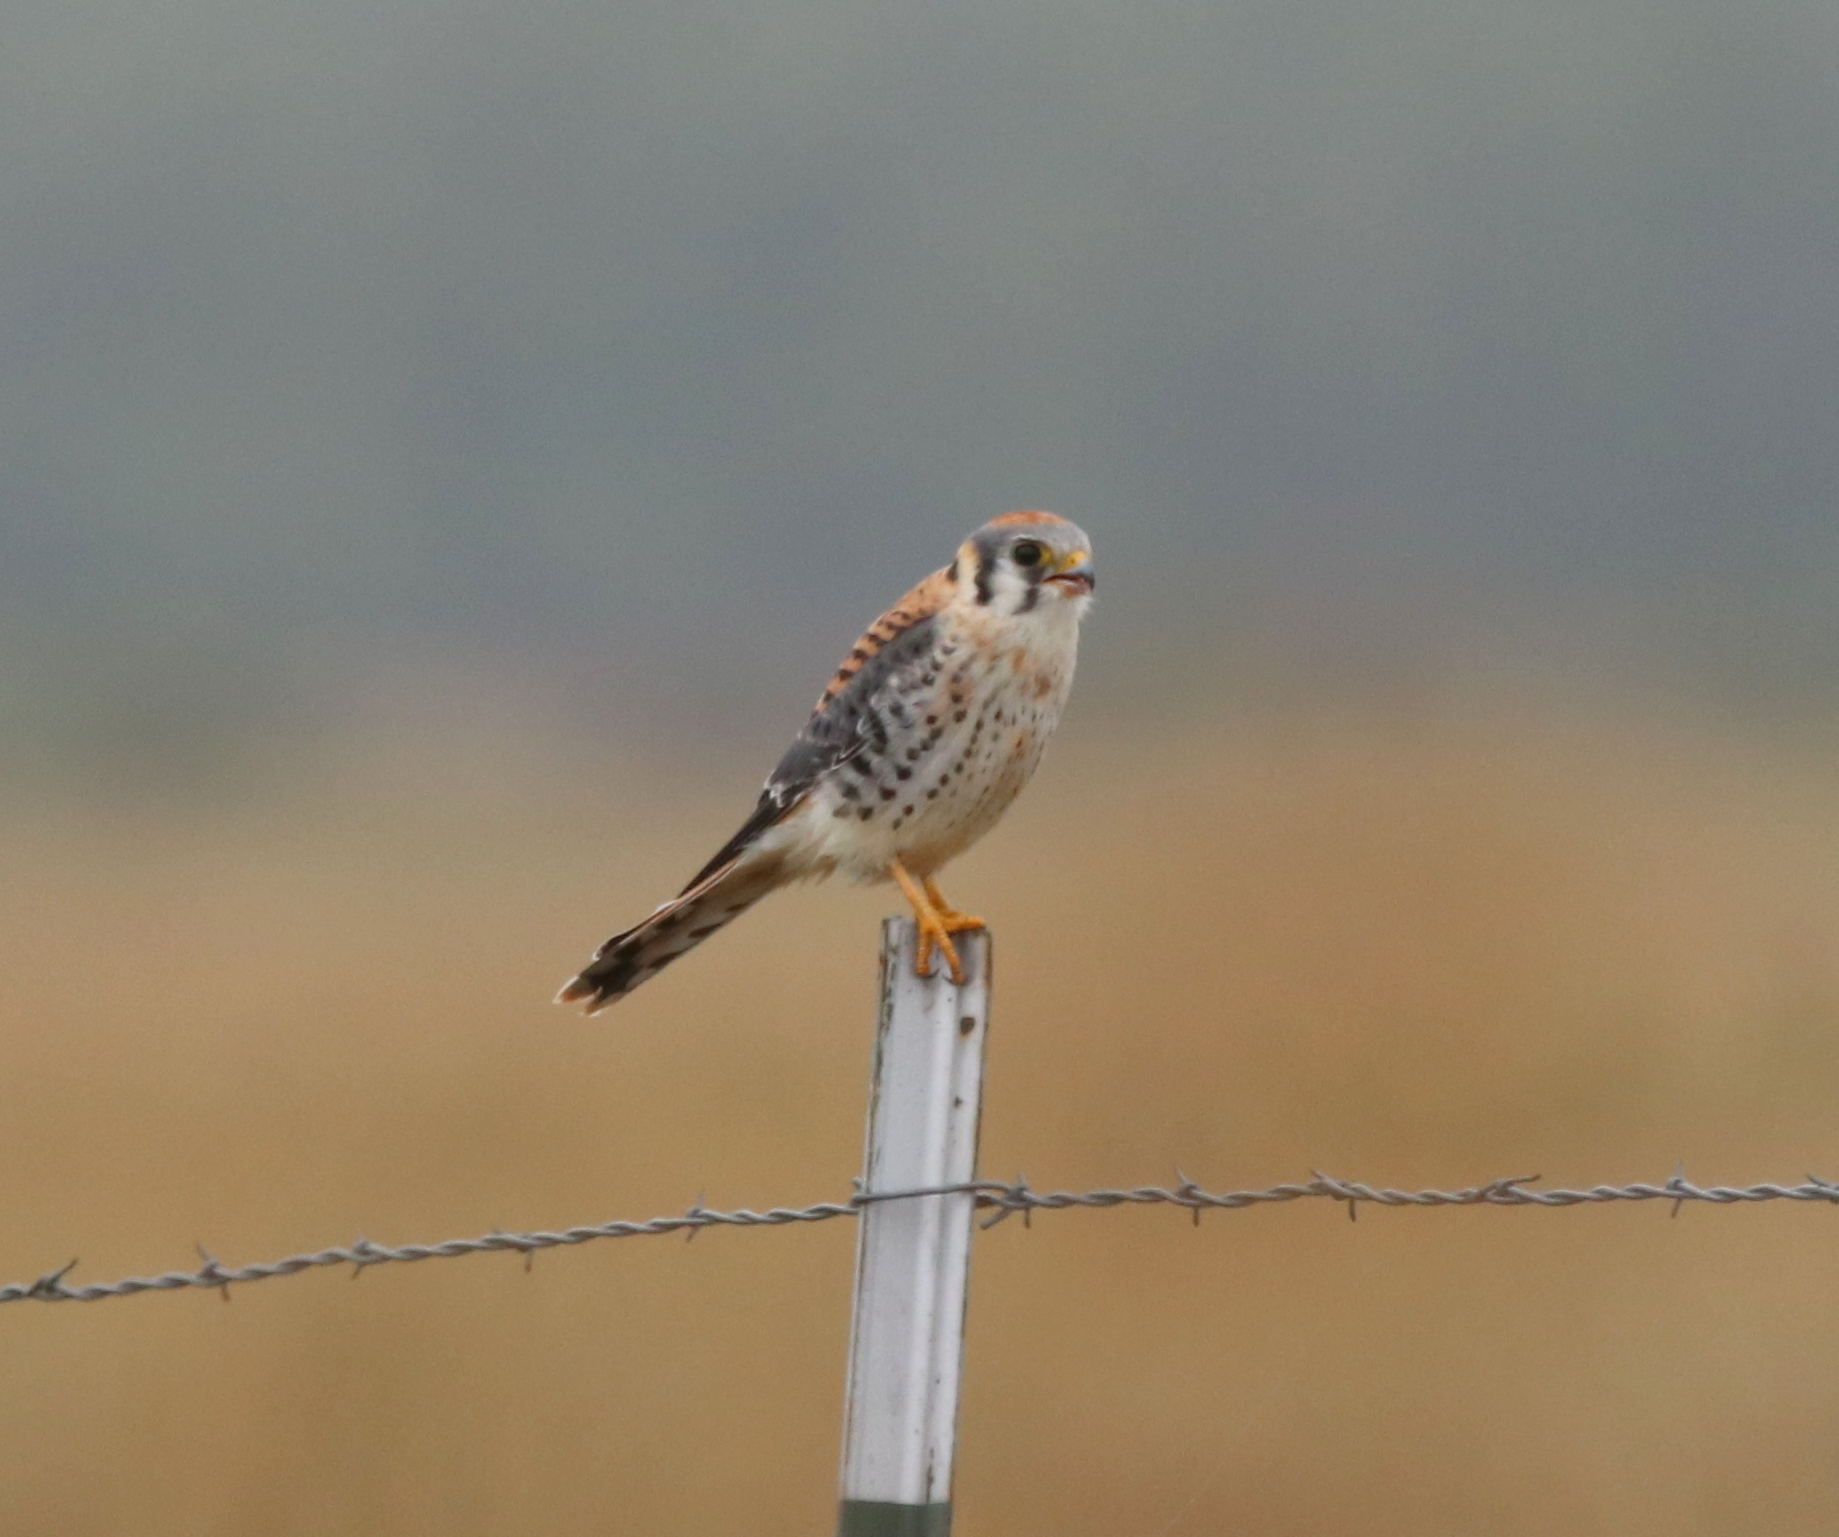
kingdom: Animalia
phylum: Chordata
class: Aves
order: Falconiformes
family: Falconidae
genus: Falco
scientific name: Falco sparverius
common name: American kestrel
